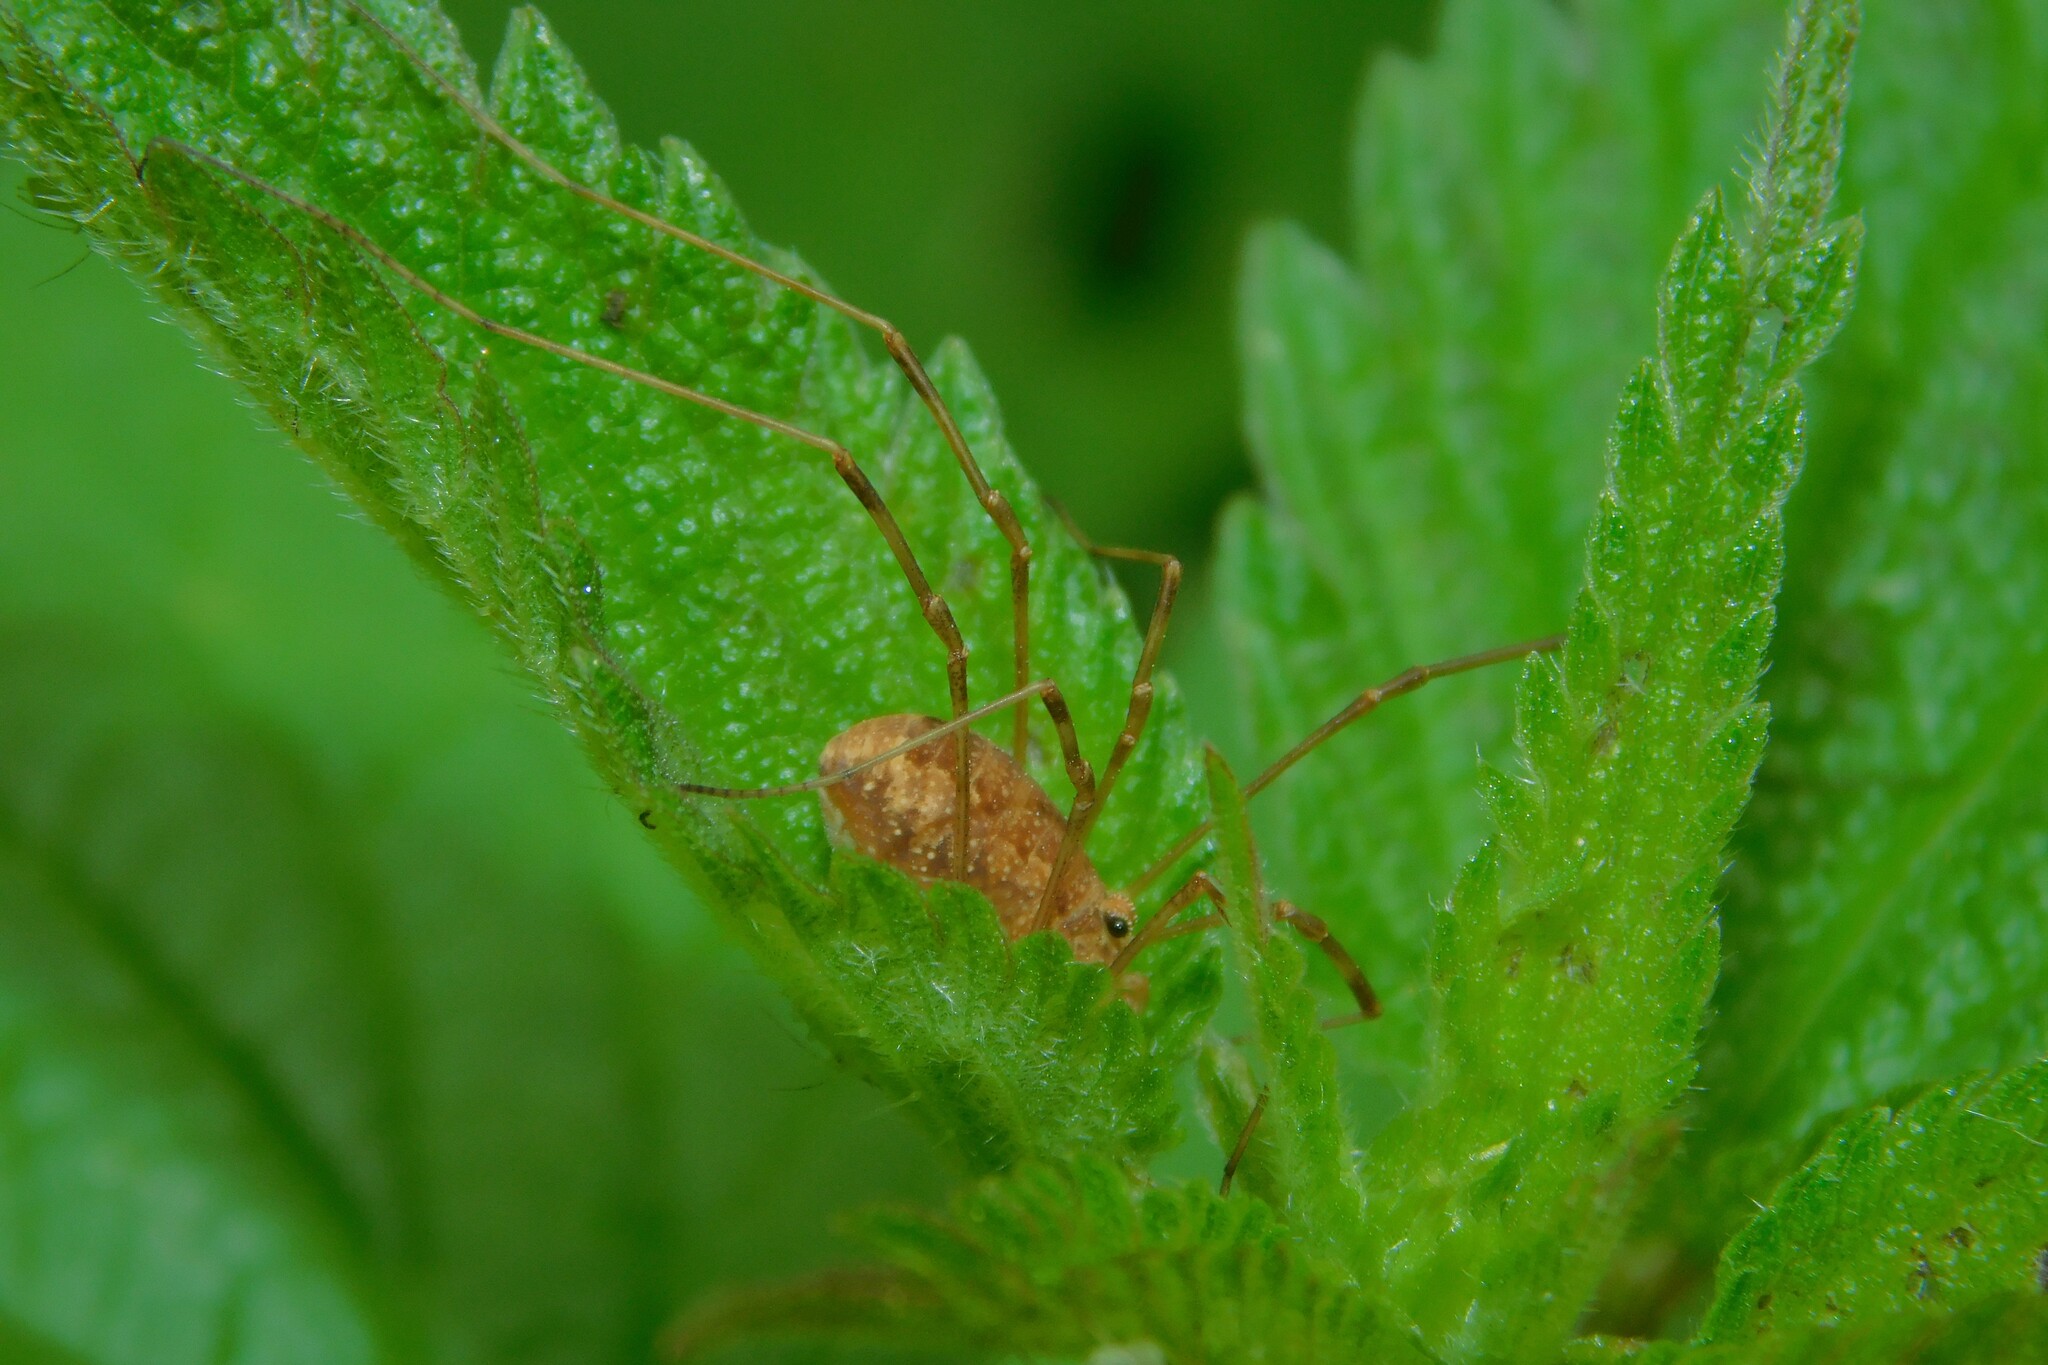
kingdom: Animalia
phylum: Arthropoda
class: Arachnida
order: Opiliones
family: Phalangiidae
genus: Rilaena
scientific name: Rilaena triangularis
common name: Spring harvestman
